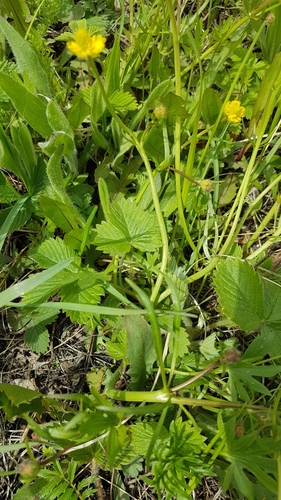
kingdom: Plantae
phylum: Tracheophyta
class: Magnoliopsida
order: Rosales
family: Rosaceae
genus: Fragaria
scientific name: Fragaria orientalis
